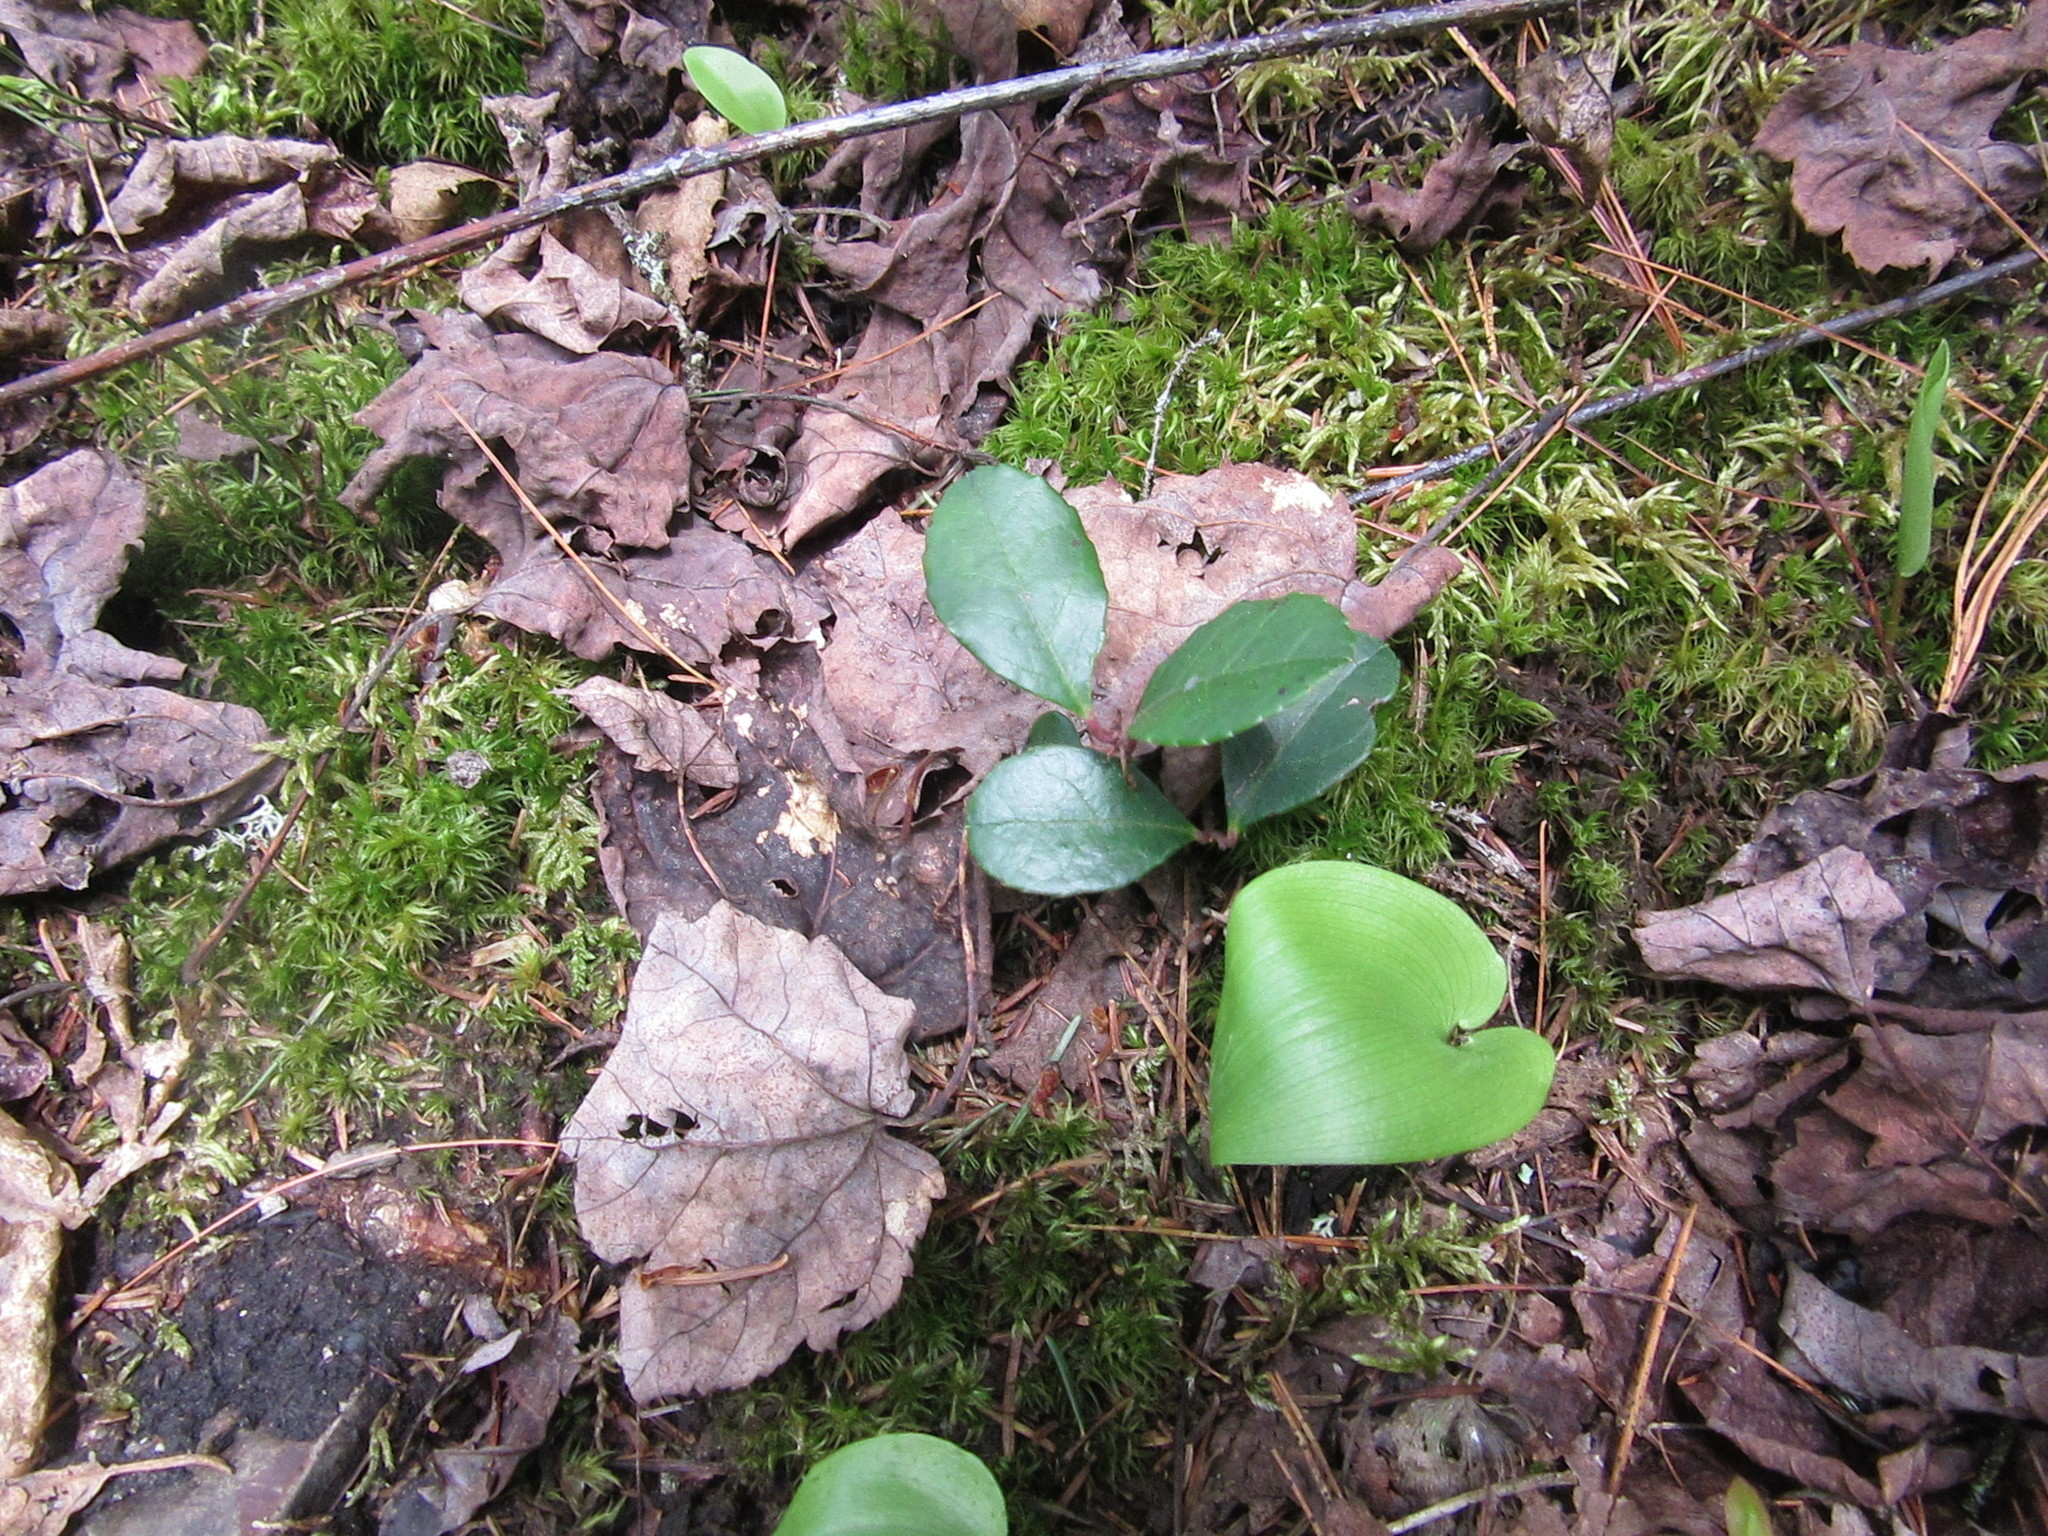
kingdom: Plantae
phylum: Tracheophyta
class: Magnoliopsida
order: Ericales
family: Ericaceae
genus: Gaultheria
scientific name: Gaultheria procumbens
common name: Checkerberry
